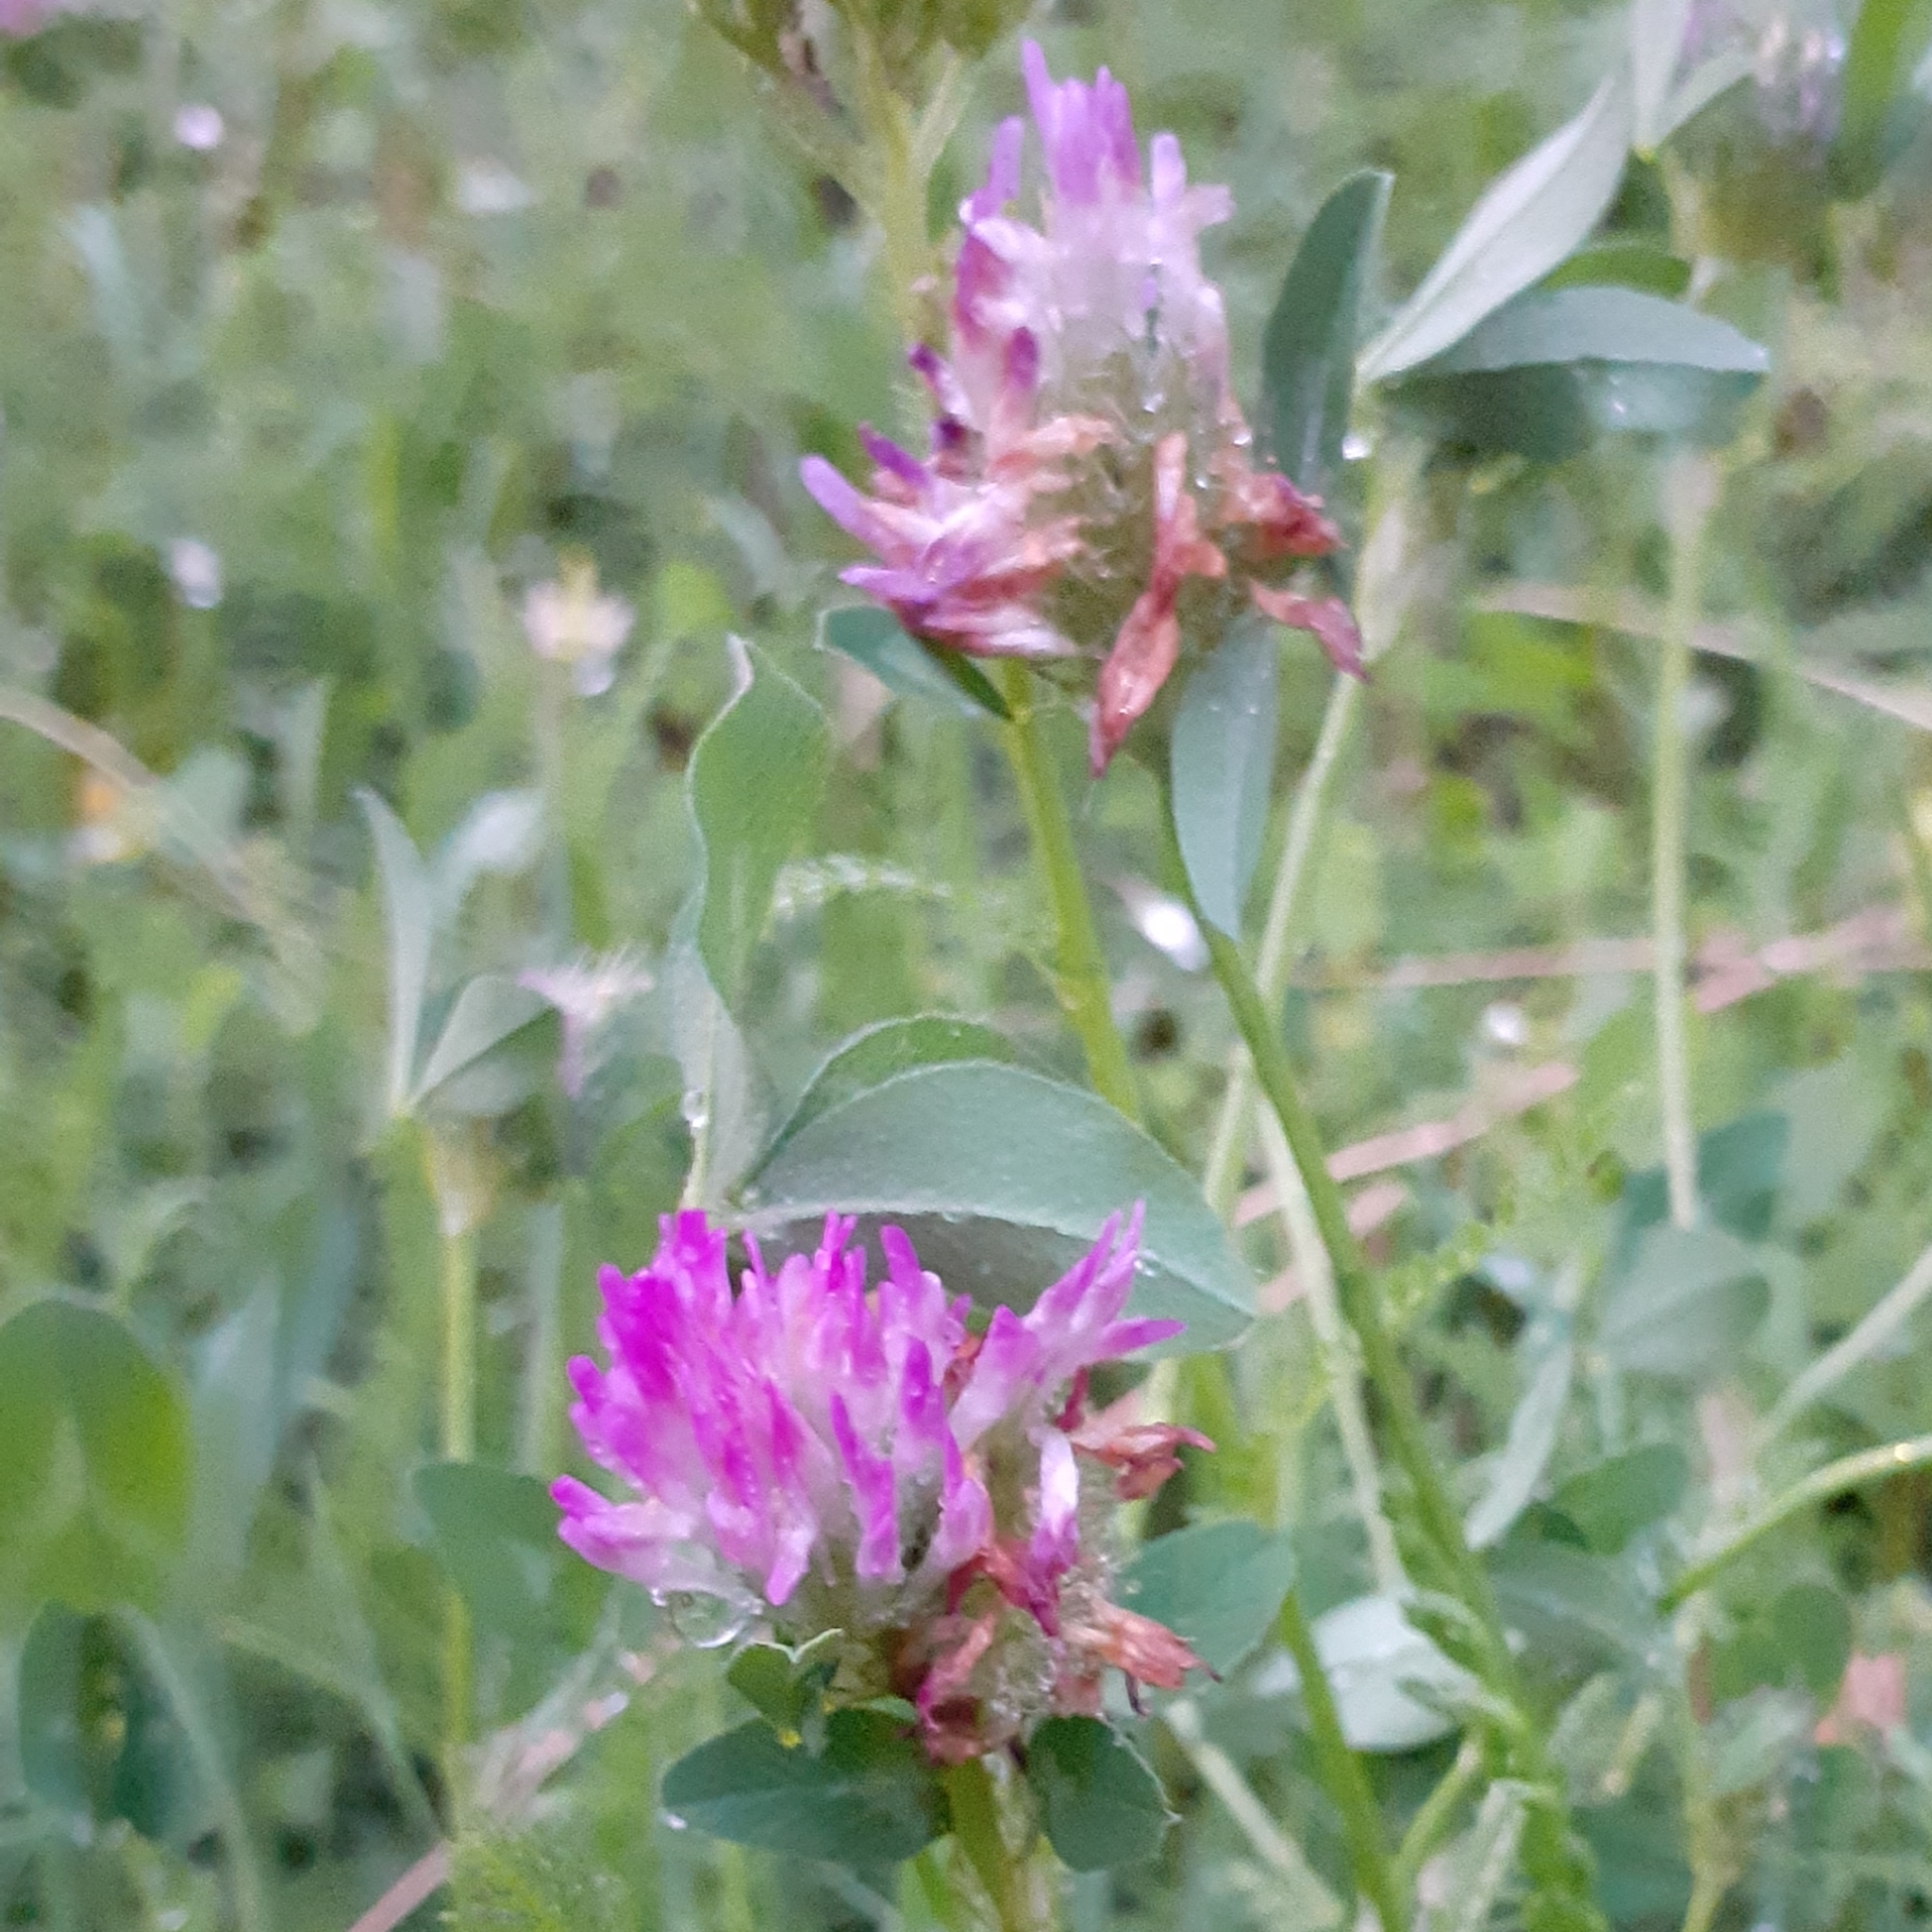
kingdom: Plantae
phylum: Tracheophyta
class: Magnoliopsida
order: Fabales
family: Fabaceae
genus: Trifolium
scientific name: Trifolium pratense
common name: Red clover
